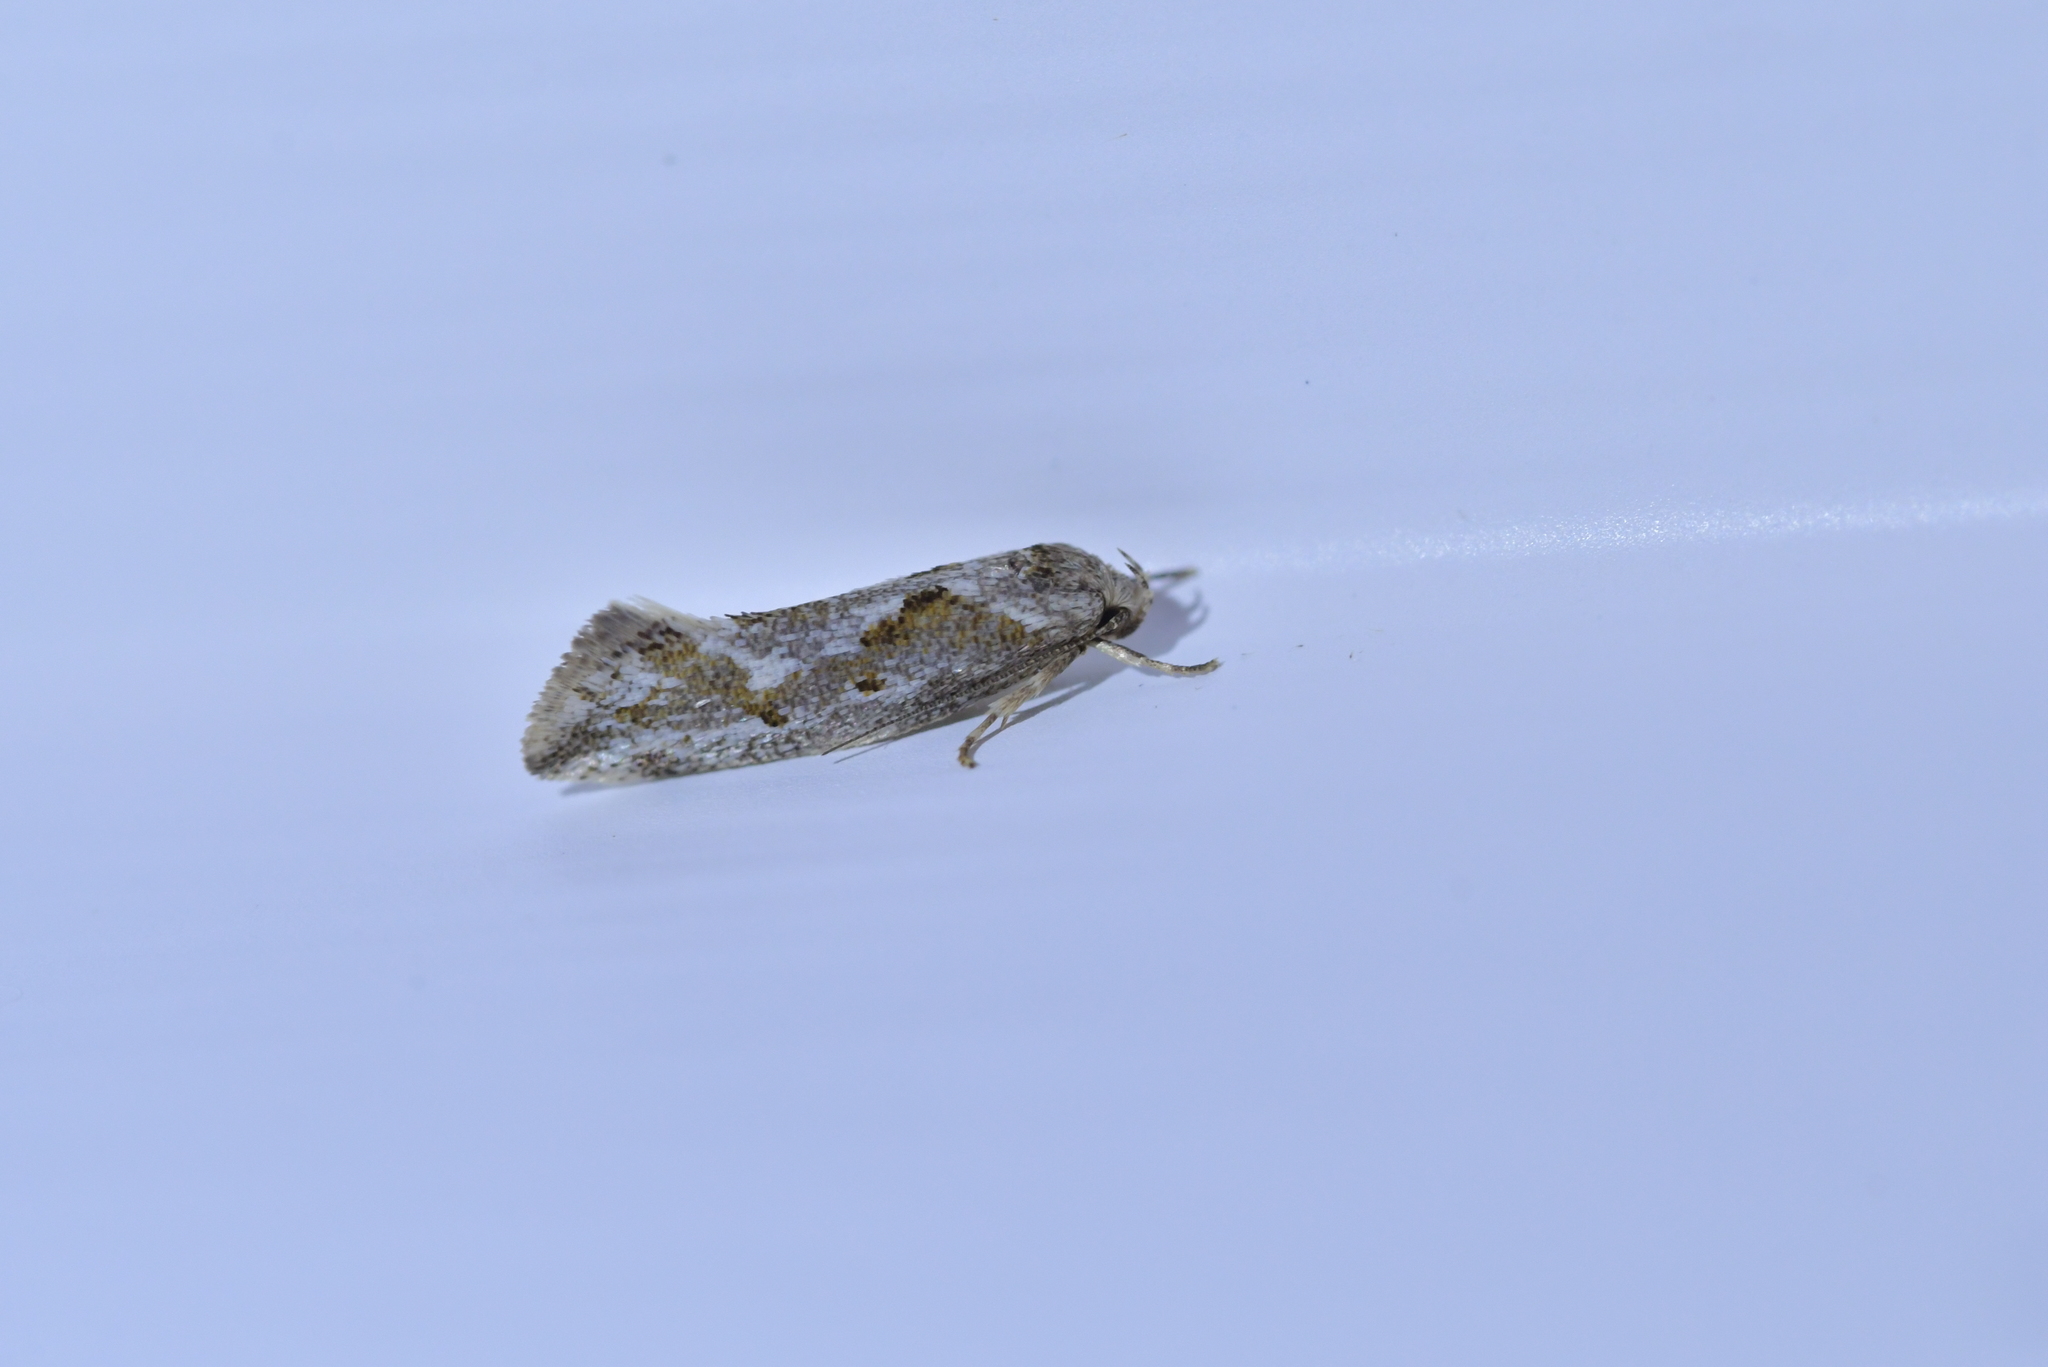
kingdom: Animalia
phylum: Arthropoda
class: Insecta
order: Lepidoptera
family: Oecophoridae
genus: Tingena
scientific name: Tingena hemimochla
